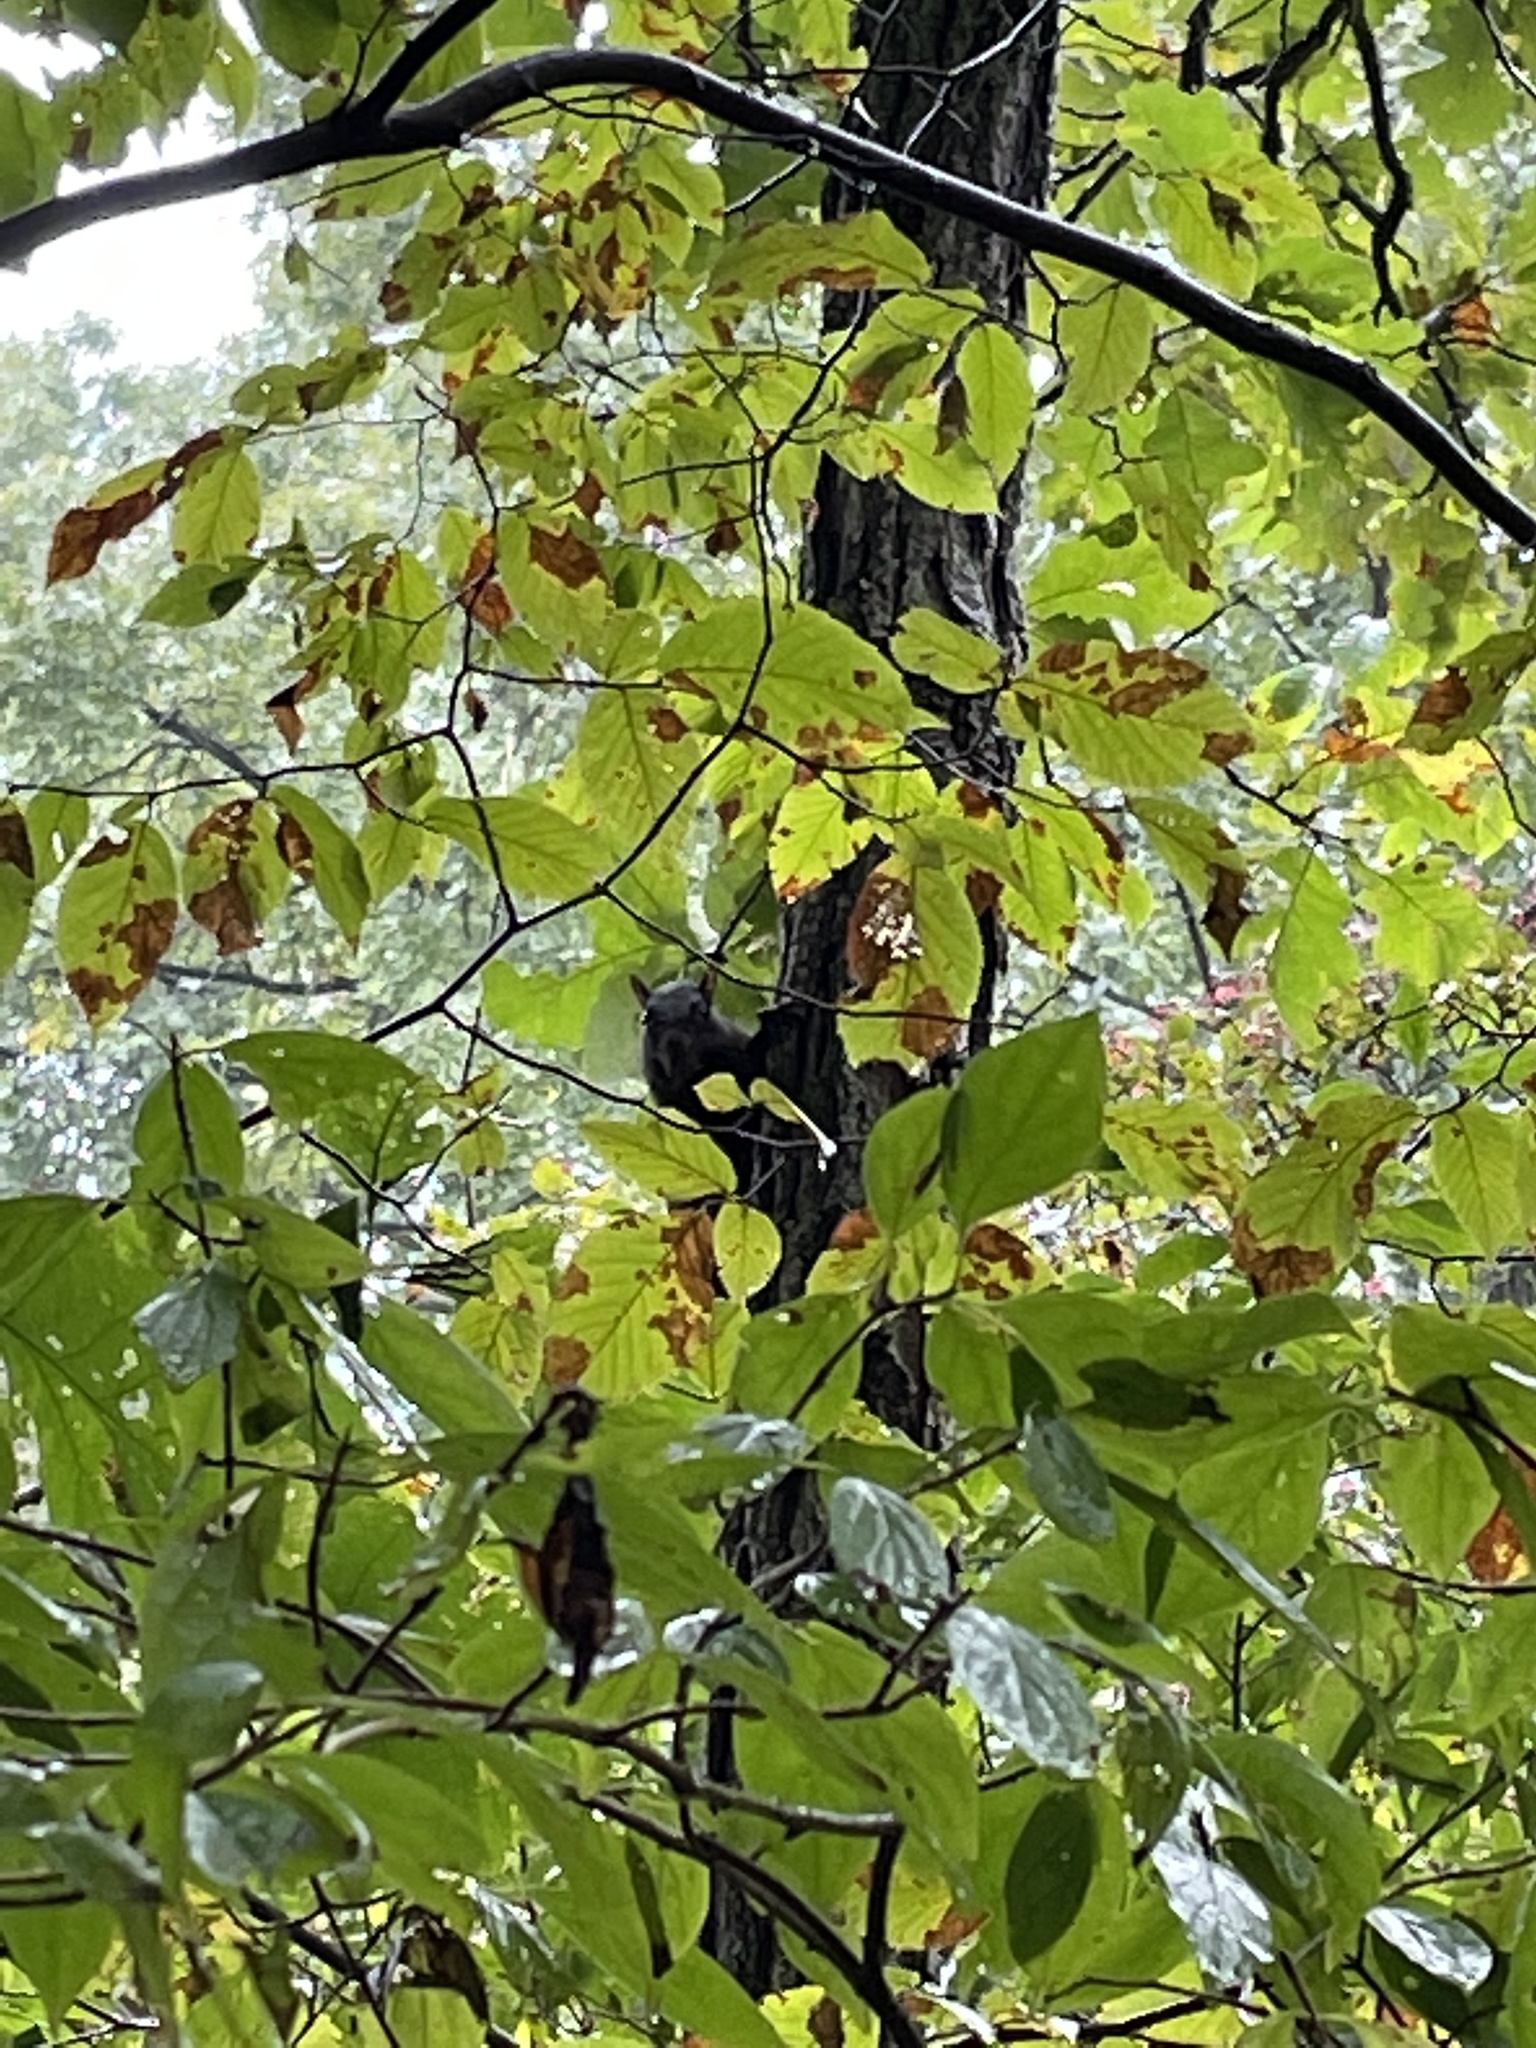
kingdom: Animalia
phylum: Chordata
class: Mammalia
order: Rodentia
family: Sciuridae
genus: Sciurus
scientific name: Sciurus carolinensis
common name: Eastern gray squirrel
